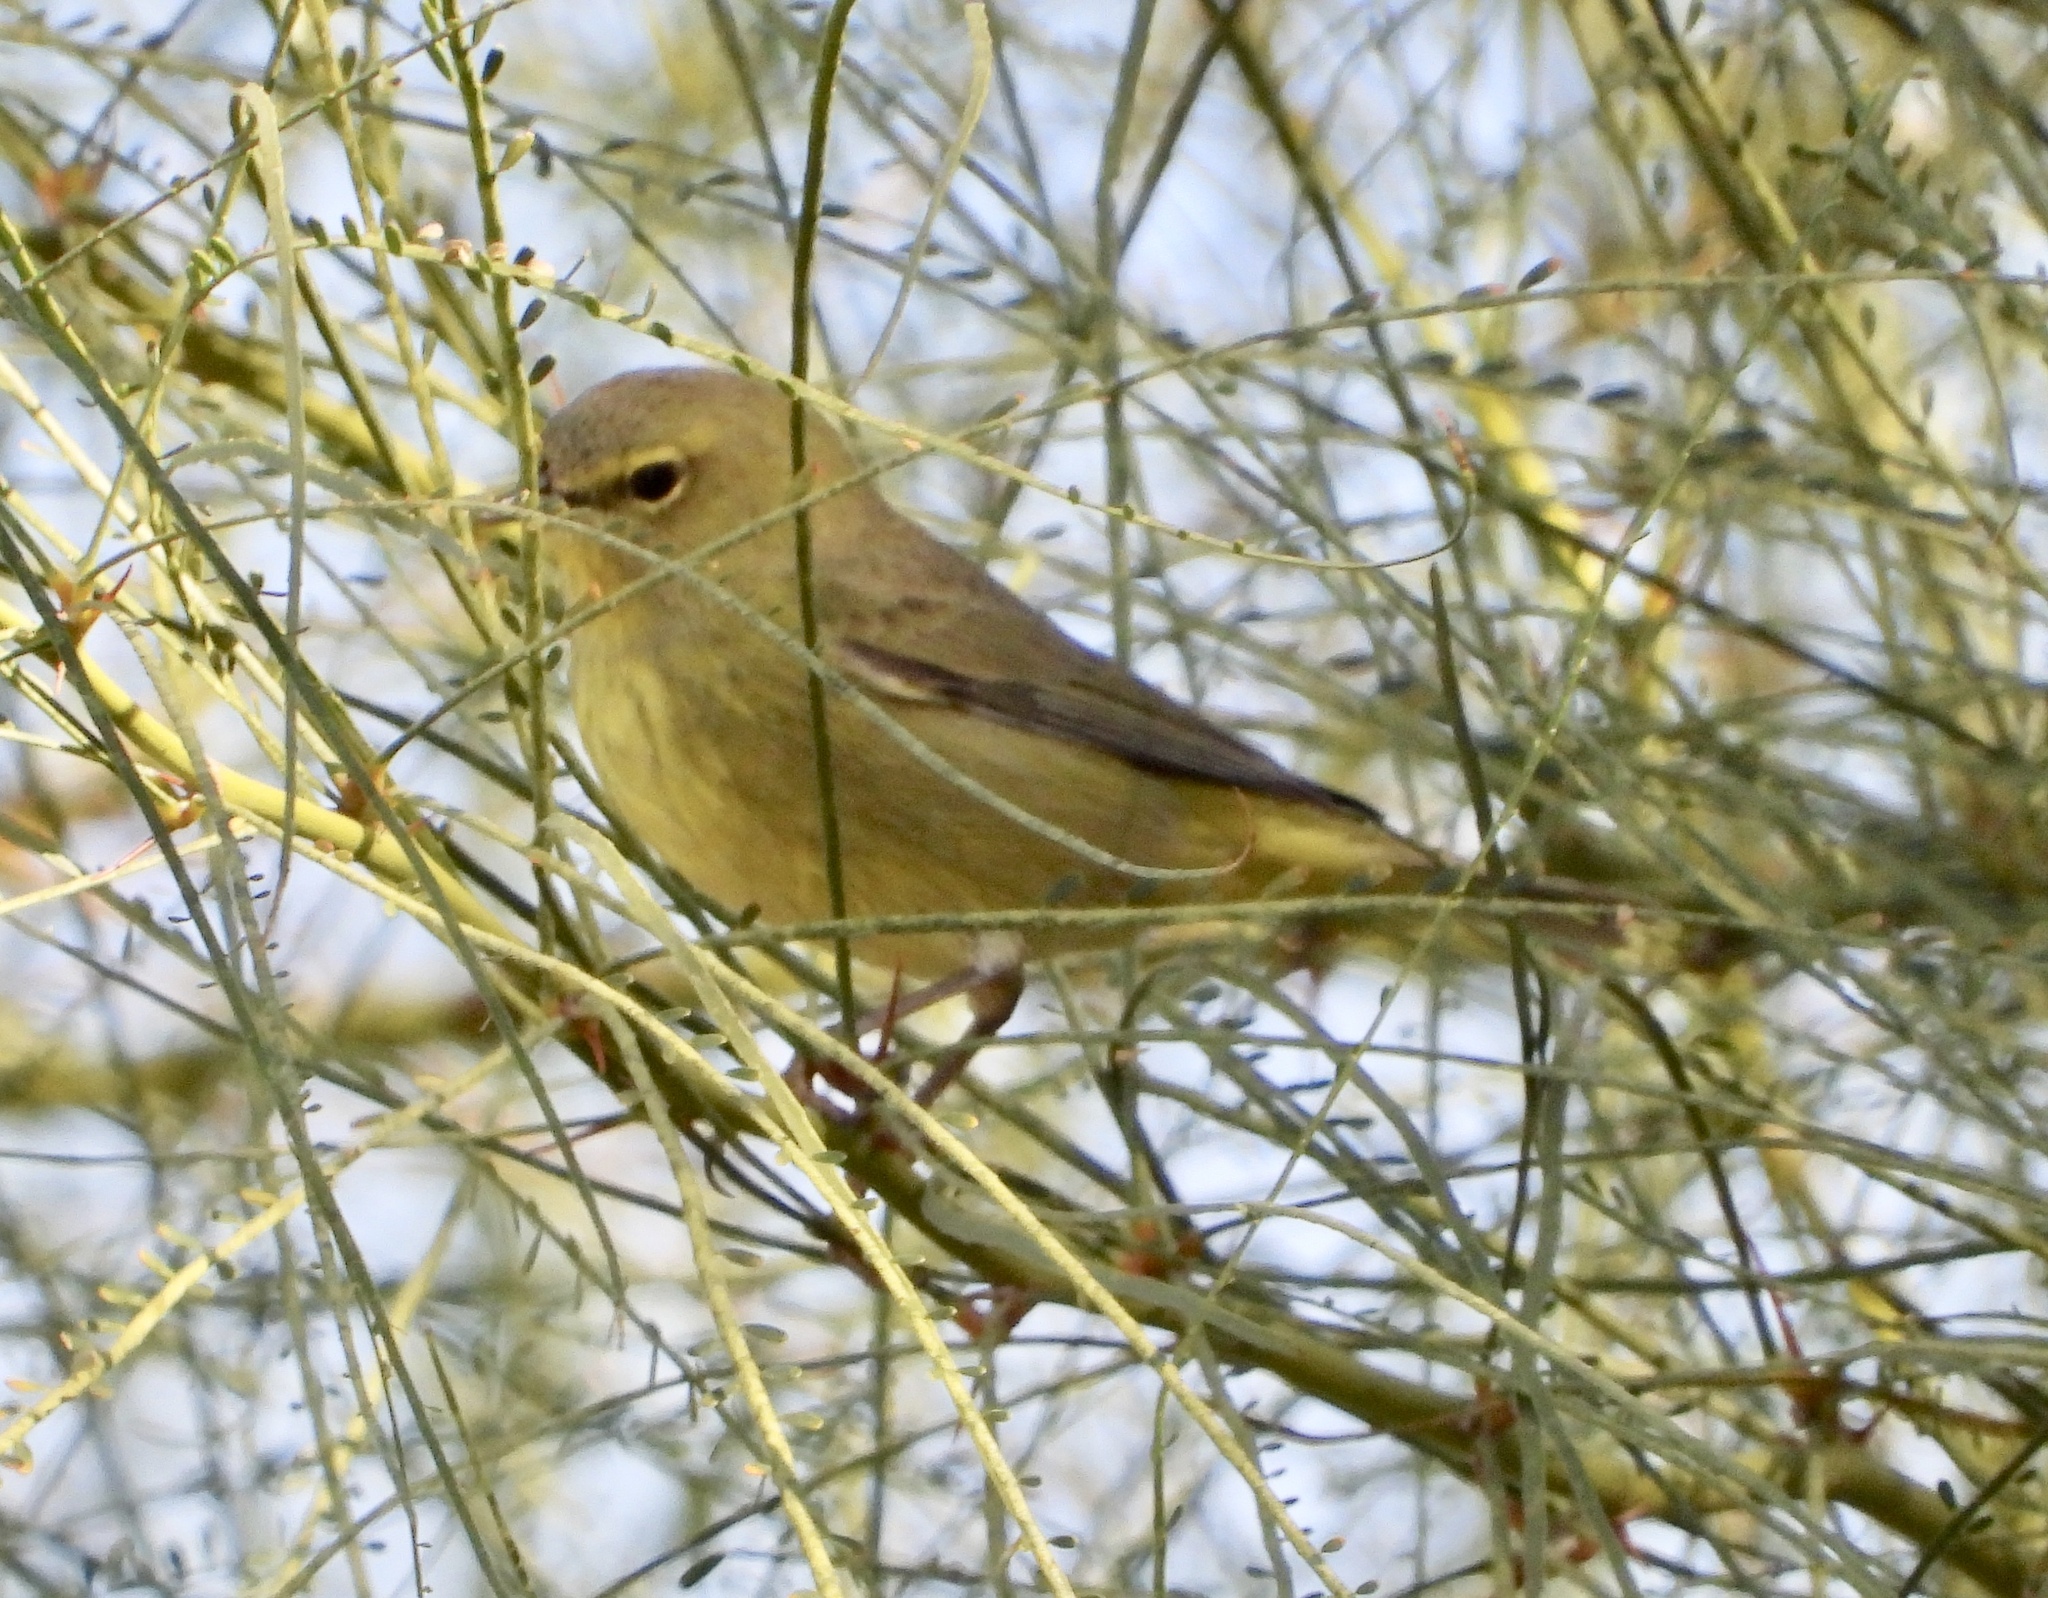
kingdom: Animalia
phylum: Chordata
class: Aves
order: Passeriformes
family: Parulidae
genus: Leiothlypis
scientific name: Leiothlypis celata
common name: Orange-crowned warbler
